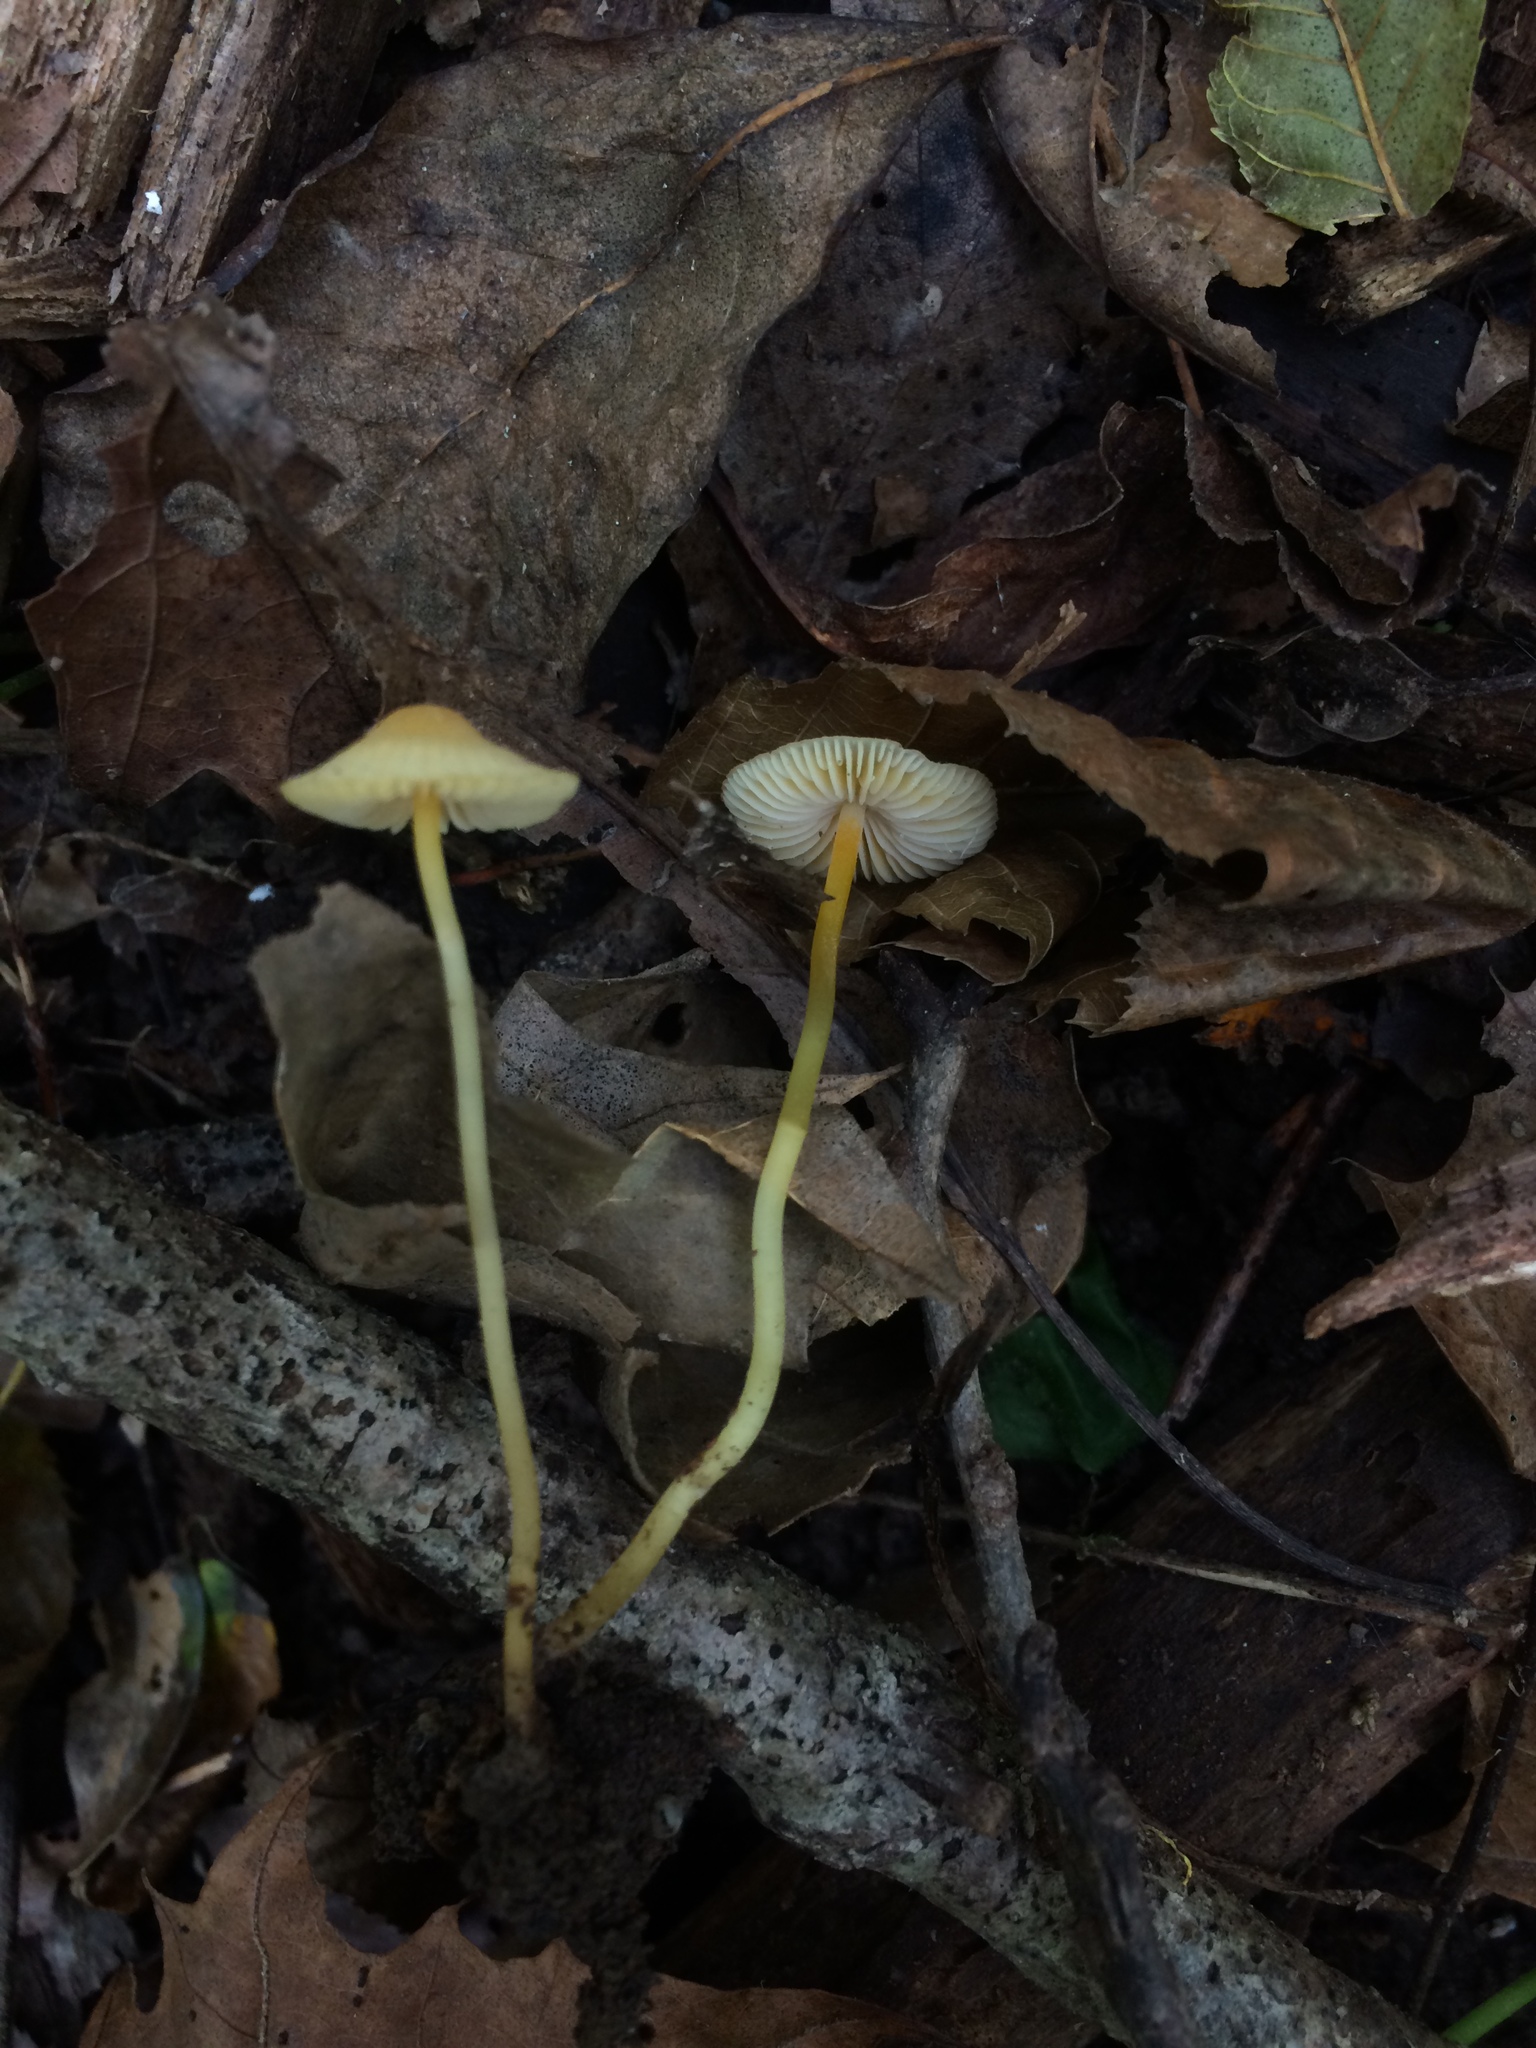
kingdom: Fungi
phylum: Basidiomycota
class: Agaricomycetes
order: Agaricales
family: Mycenaceae
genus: Mycena
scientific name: Mycena crocea
